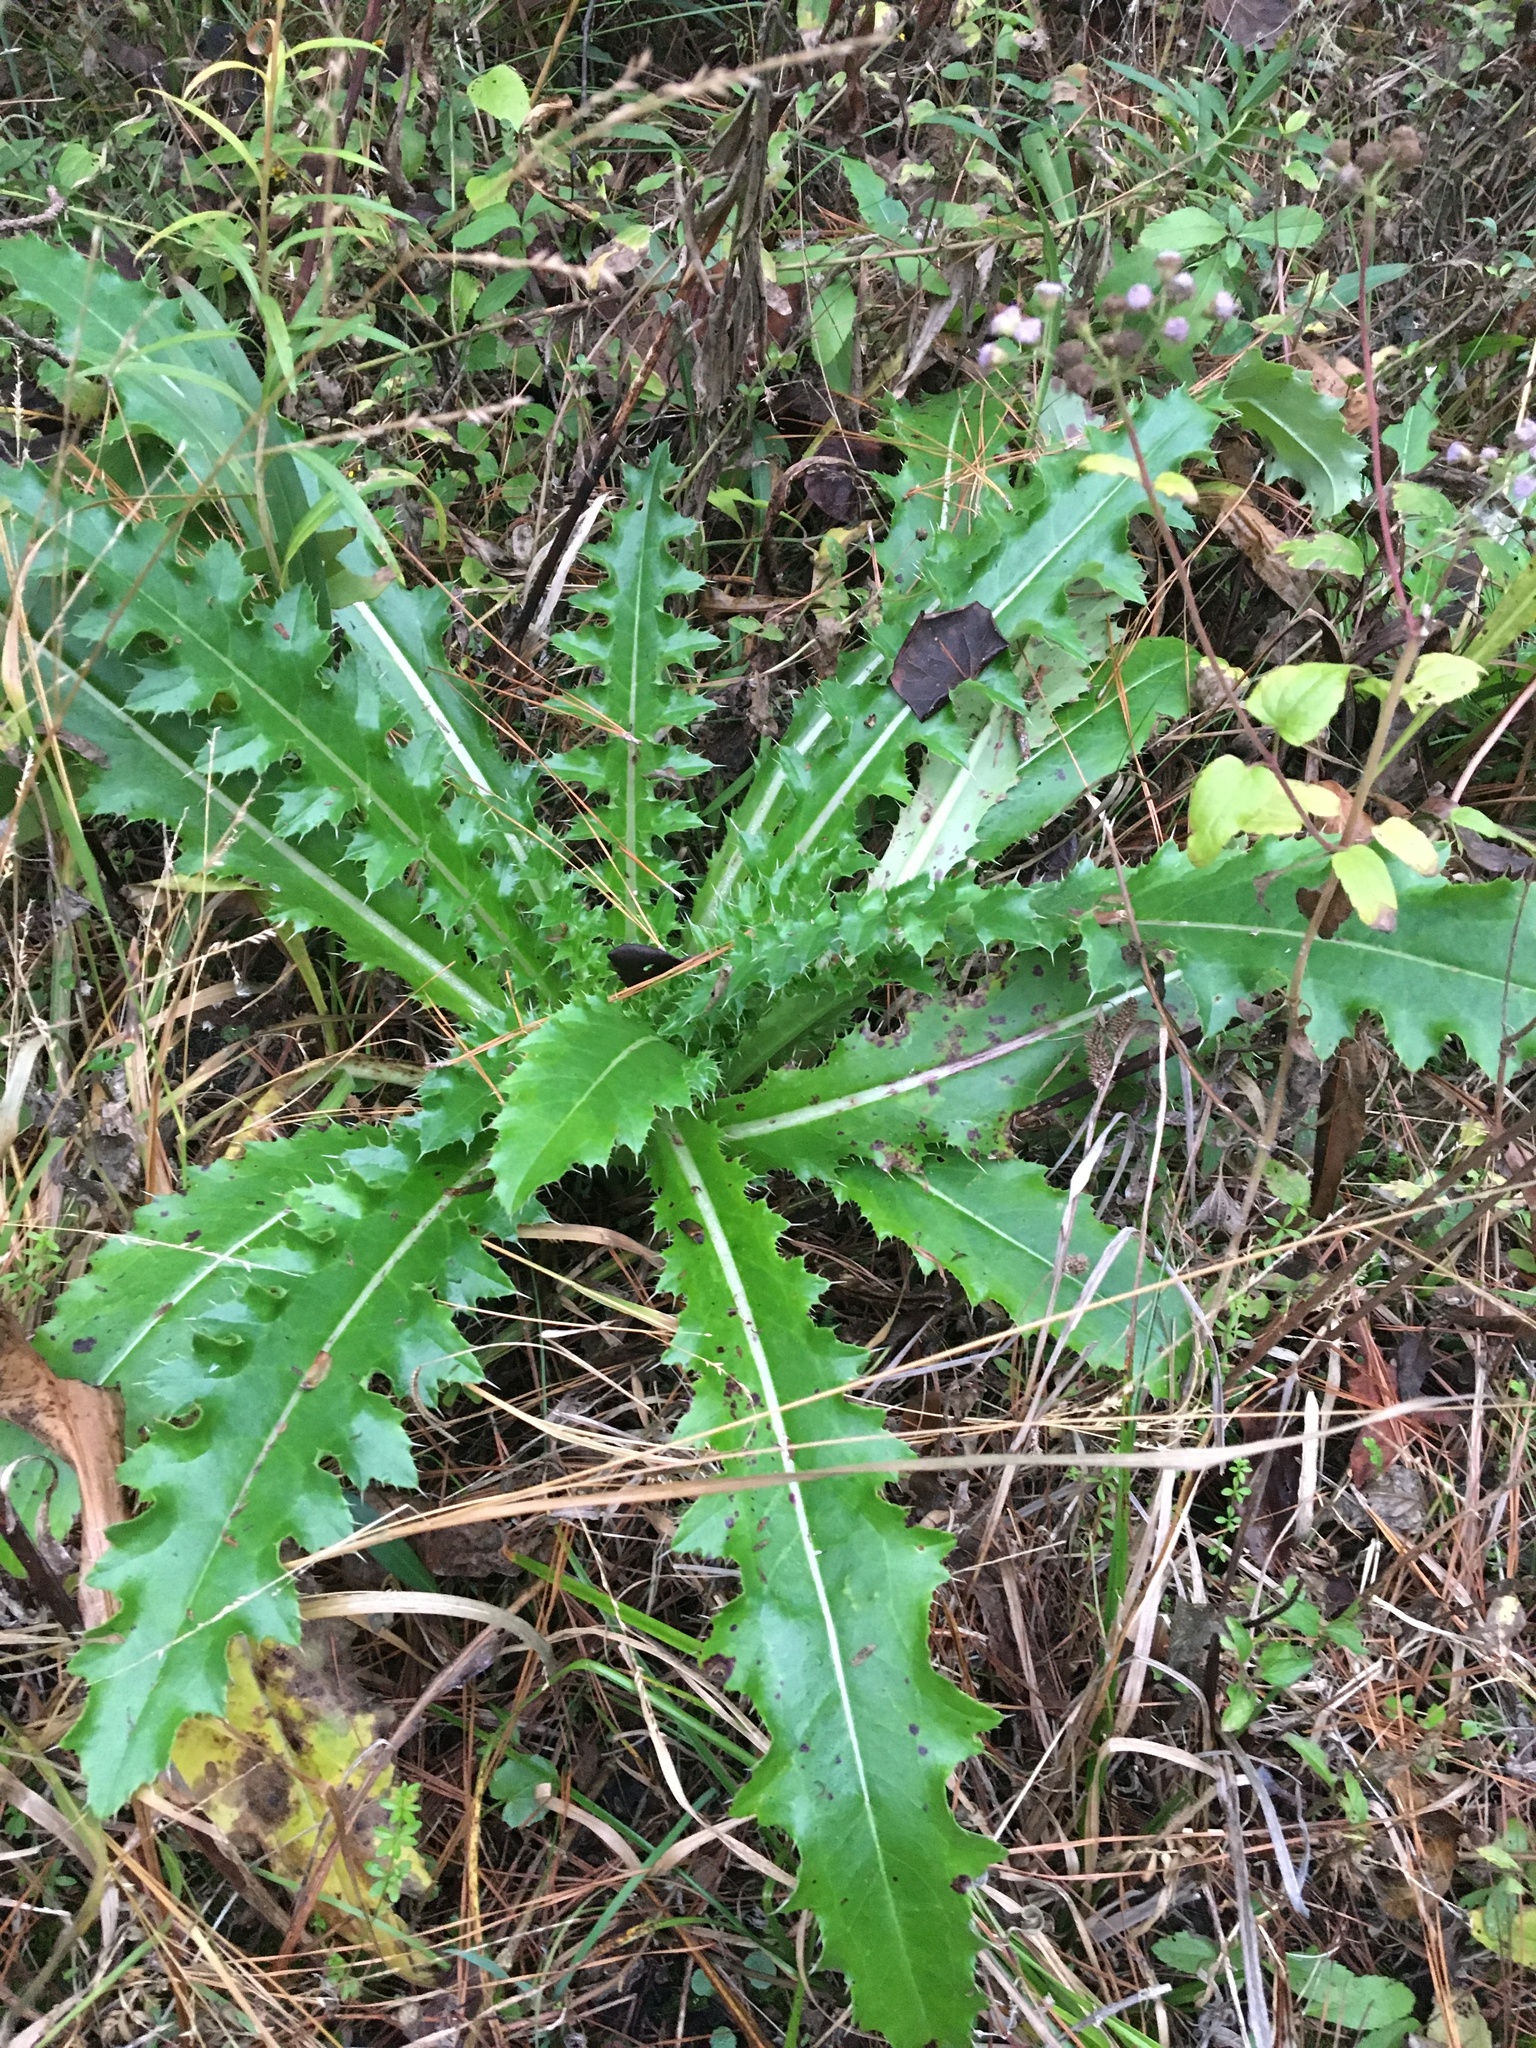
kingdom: Plantae
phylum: Tracheophyta
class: Magnoliopsida
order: Asterales
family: Asteraceae
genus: Cirsium
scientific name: Cirsium horridulum
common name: Bristly thistle
